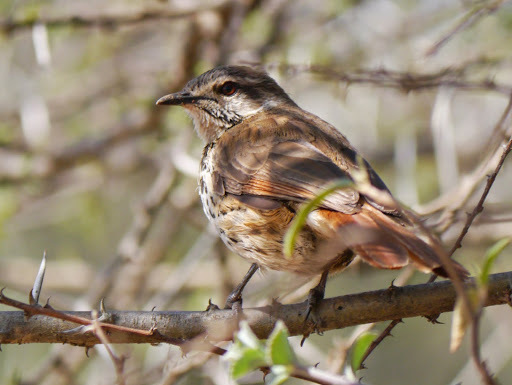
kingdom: Animalia
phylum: Chordata
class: Aves
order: Passeriformes
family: Muscicapidae
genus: Cichladusa
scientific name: Cichladusa guttata
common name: Spotted palm thrush
